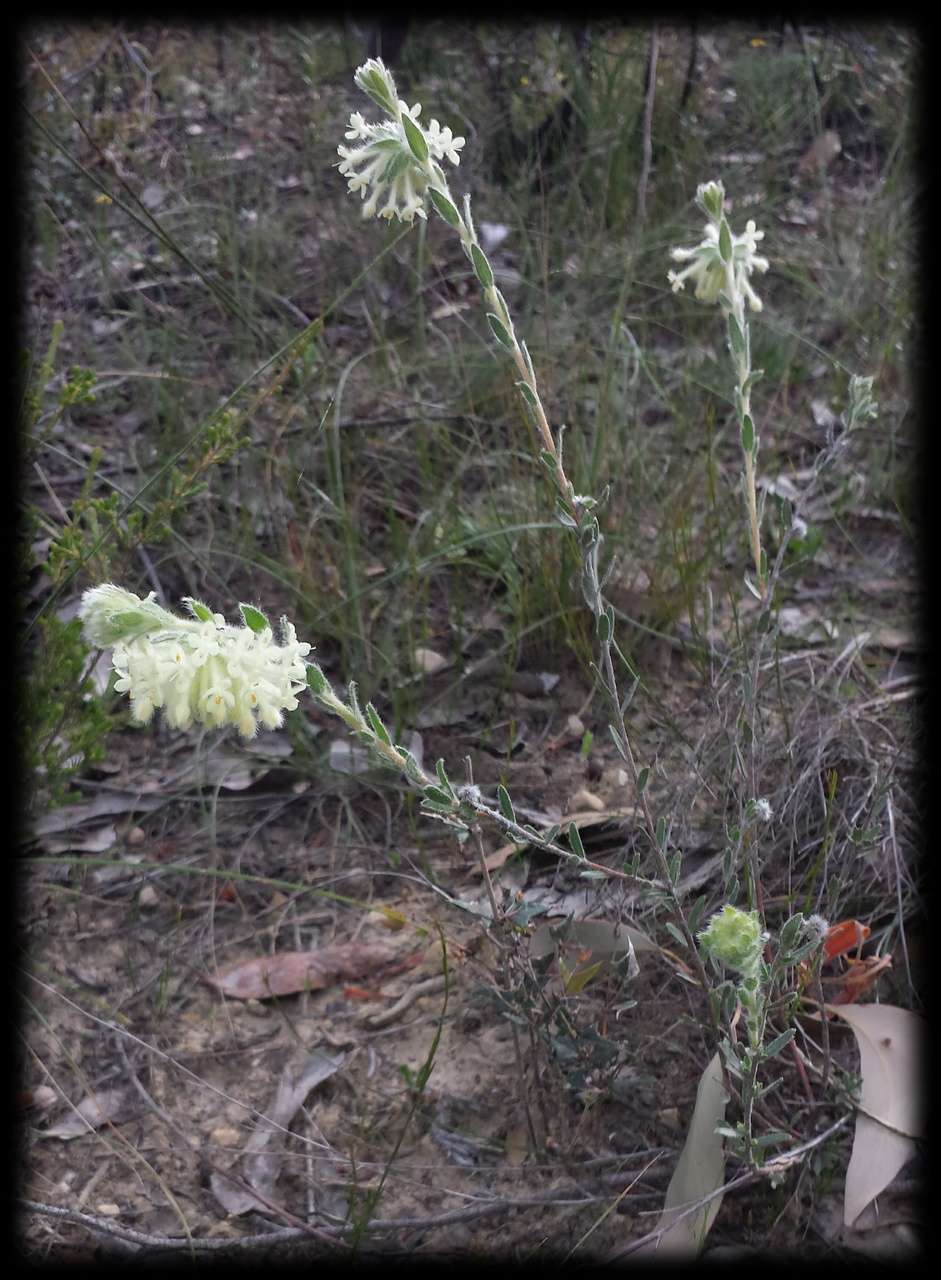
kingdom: Plantae
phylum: Tracheophyta
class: Magnoliopsida
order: Malvales
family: Thymelaeaceae
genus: Pimelea
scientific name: Pimelea octophylla
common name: Woolly riceflower
